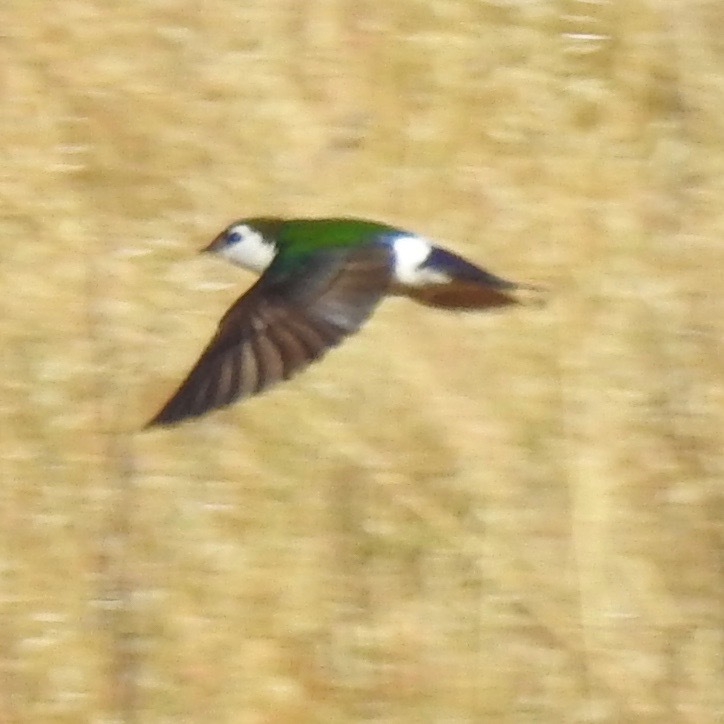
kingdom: Animalia
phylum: Chordata
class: Aves
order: Passeriformes
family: Hirundinidae
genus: Tachycineta
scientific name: Tachycineta thalassina
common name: Violet-green swallow
